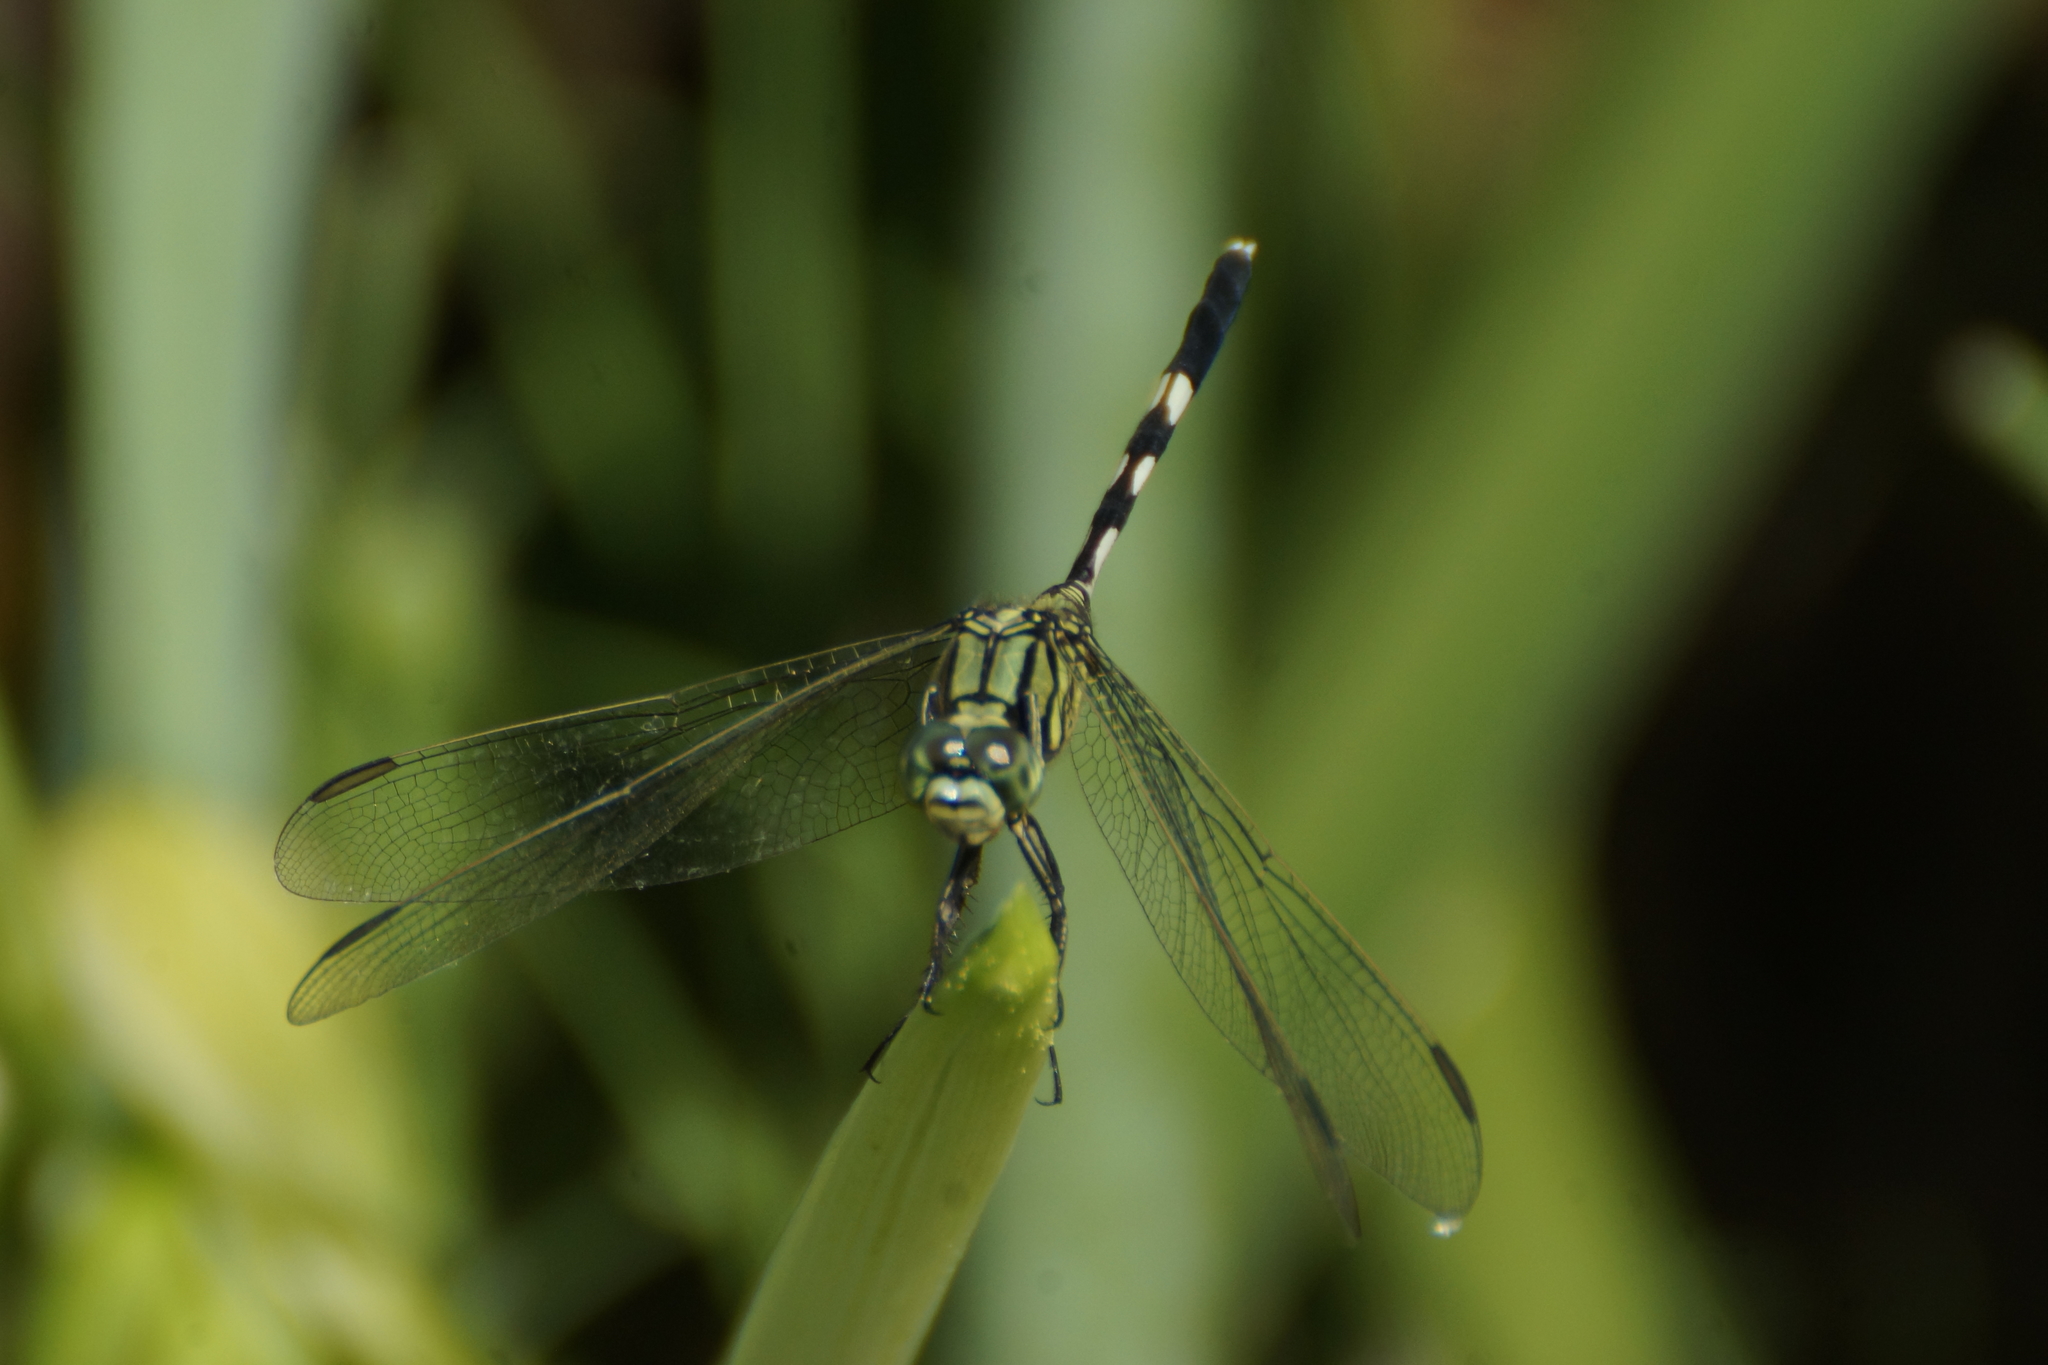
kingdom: Animalia
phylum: Arthropoda
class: Insecta
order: Odonata
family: Libellulidae
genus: Orthetrum
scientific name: Orthetrum sabina
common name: Slender skimmer
